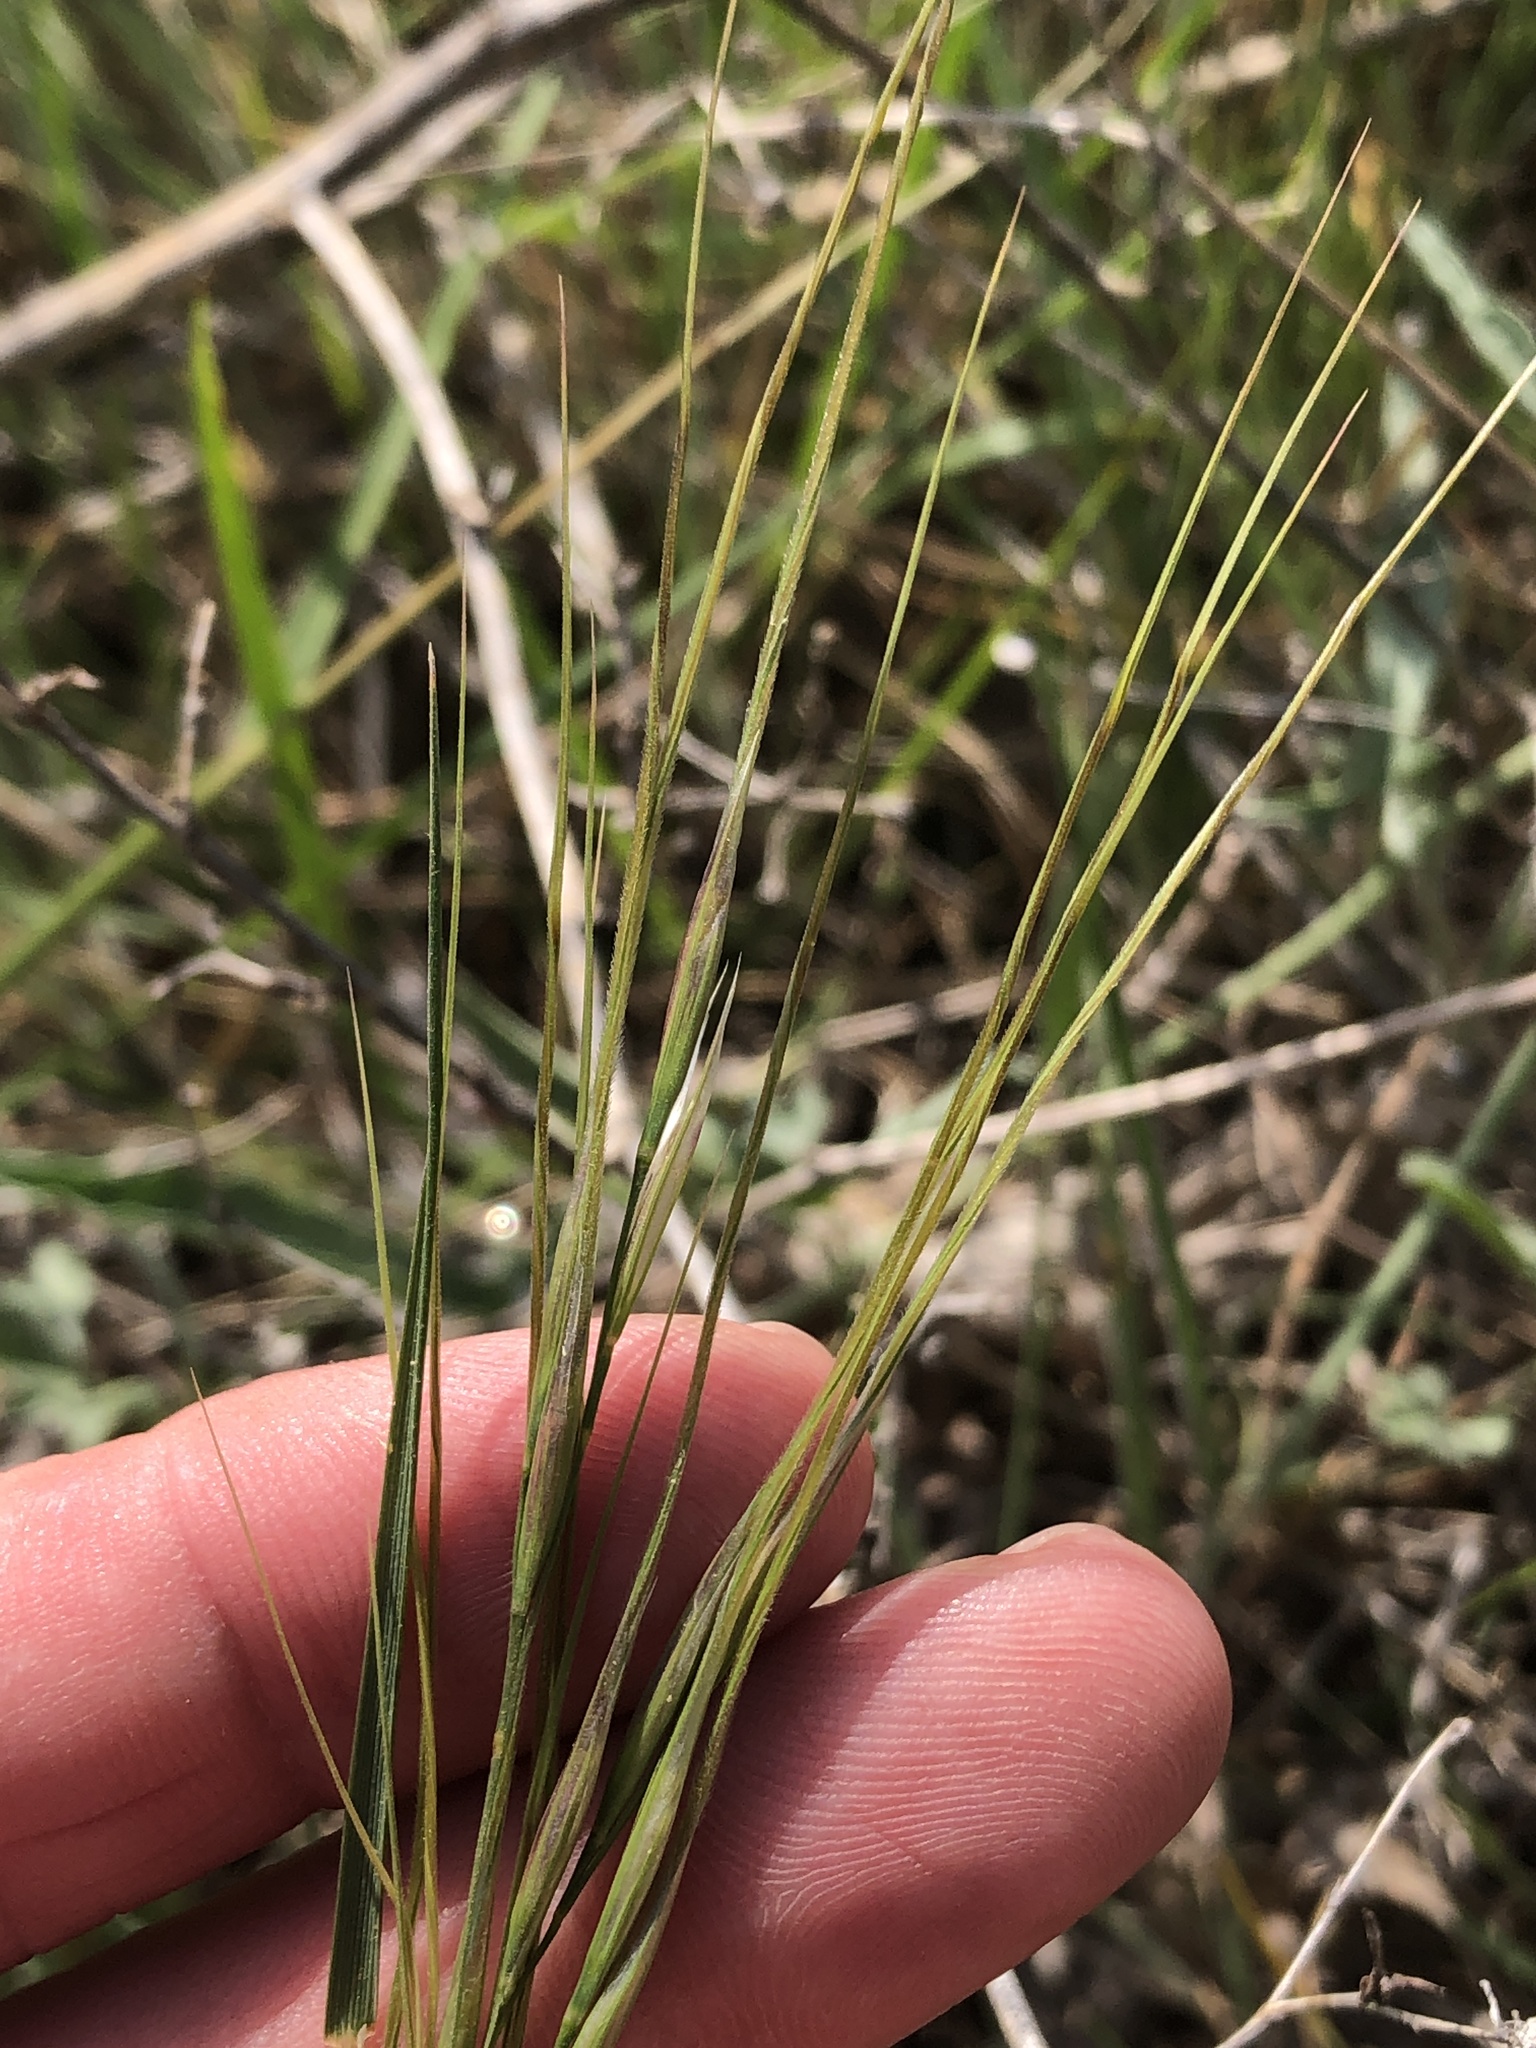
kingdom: Plantae
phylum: Tracheophyta
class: Liliopsida
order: Poales
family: Poaceae
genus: Nassella
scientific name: Nassella leucotricha
